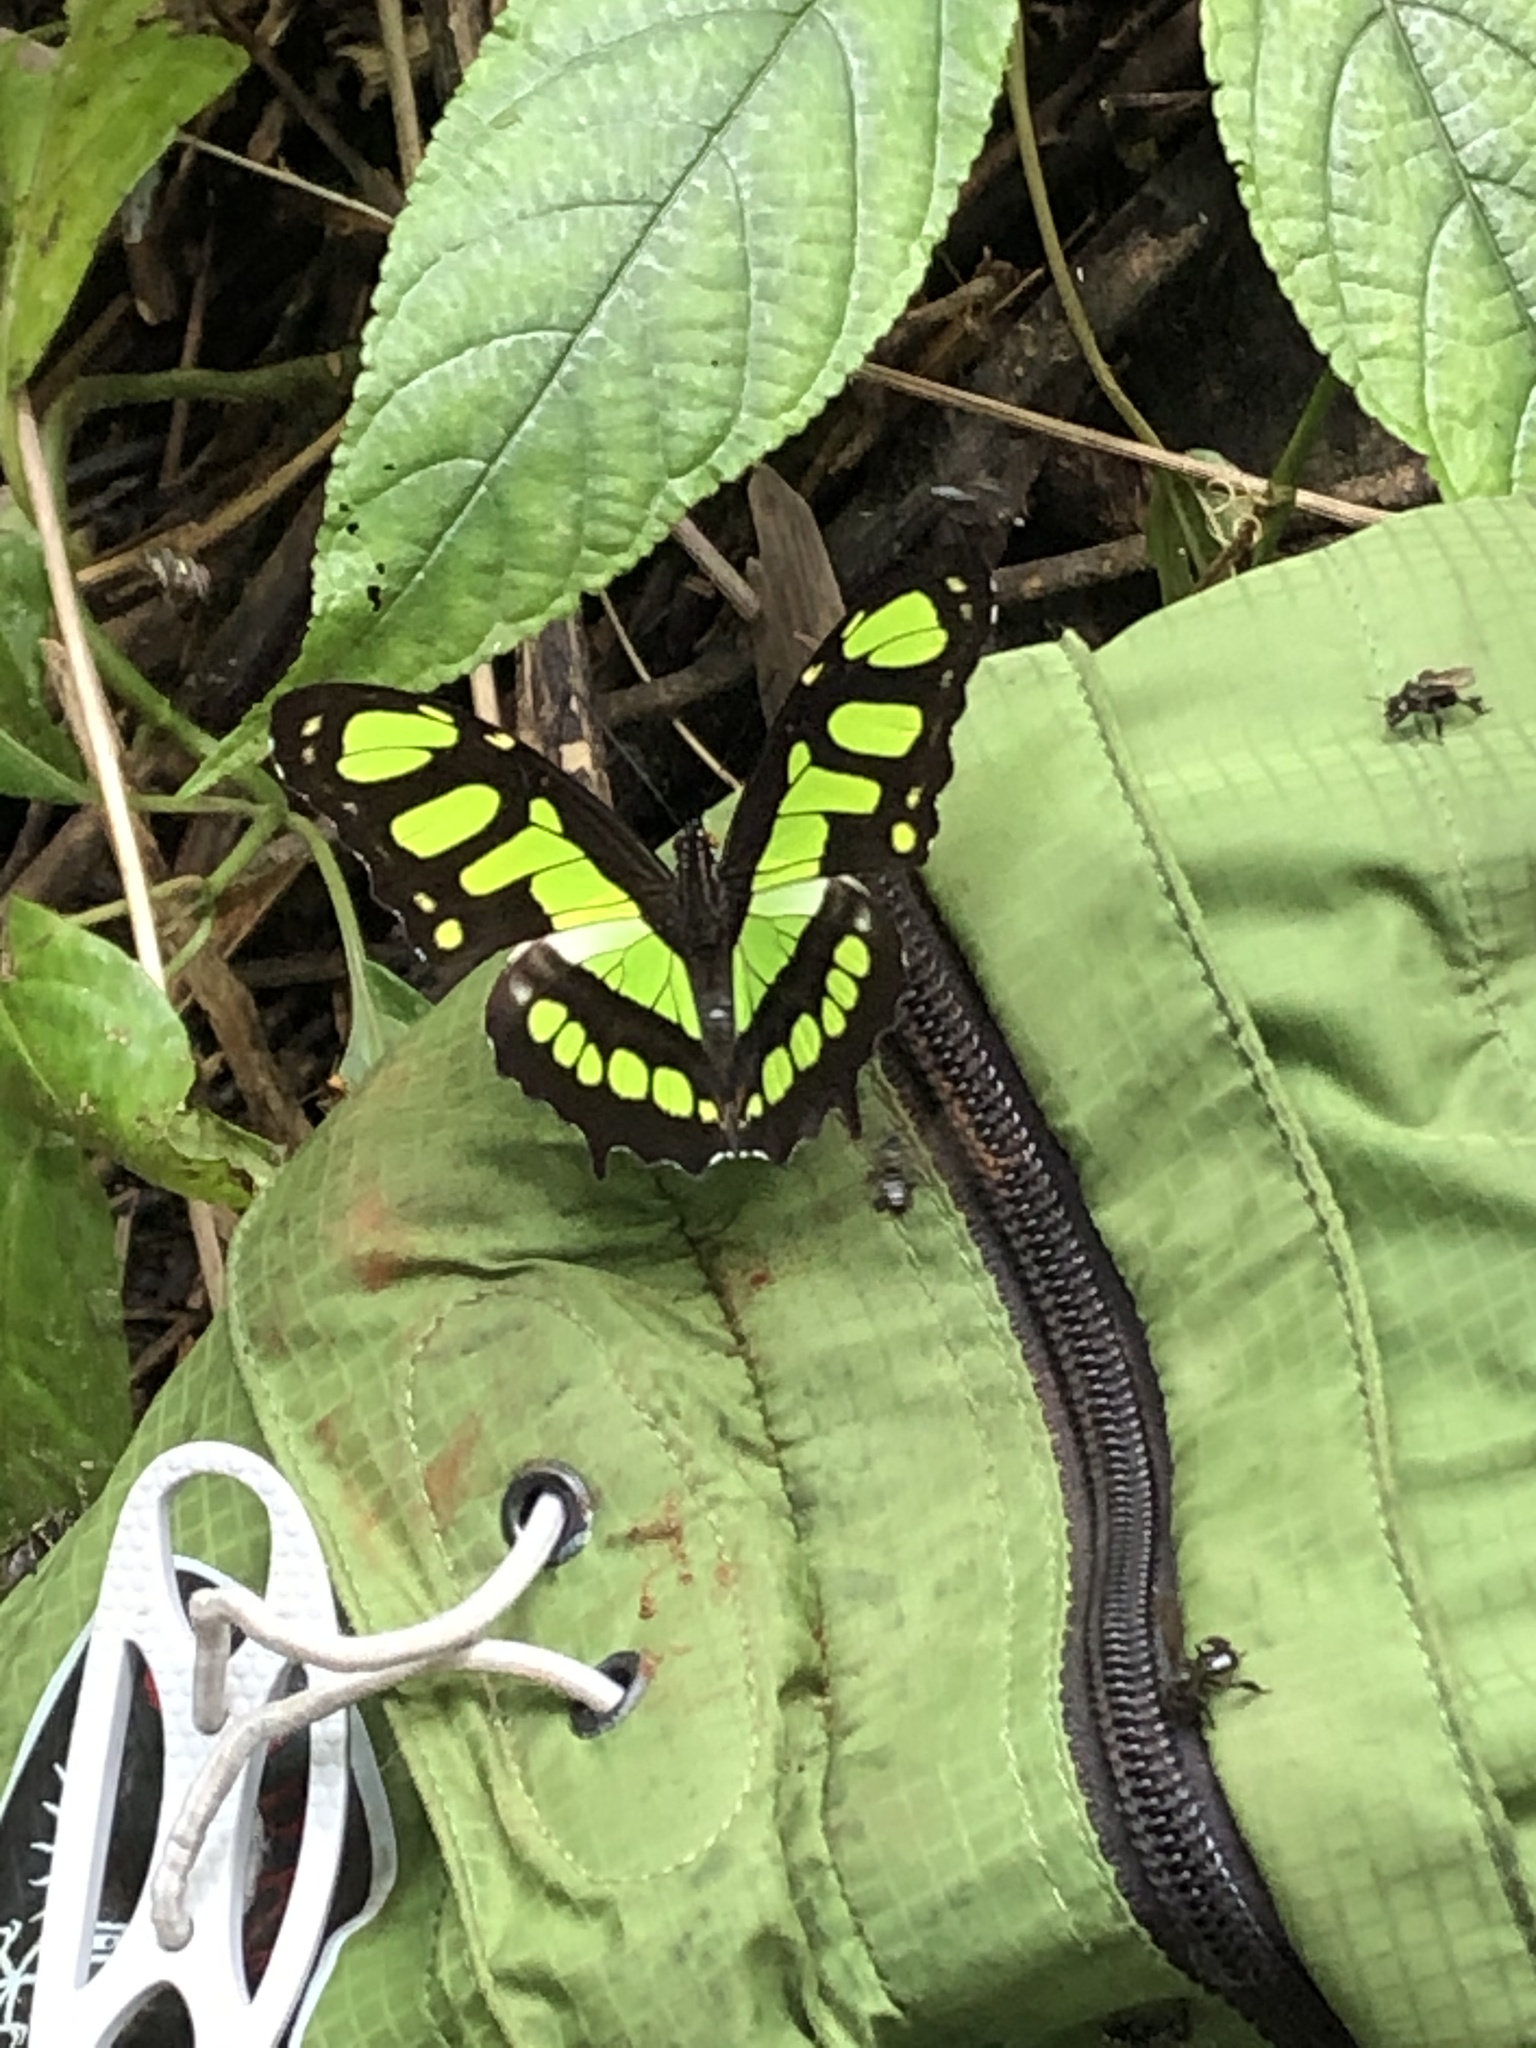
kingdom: Animalia
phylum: Arthropoda
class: Insecta
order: Lepidoptera
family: Nymphalidae
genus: Siproeta
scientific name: Siproeta stelenes
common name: Malachite
